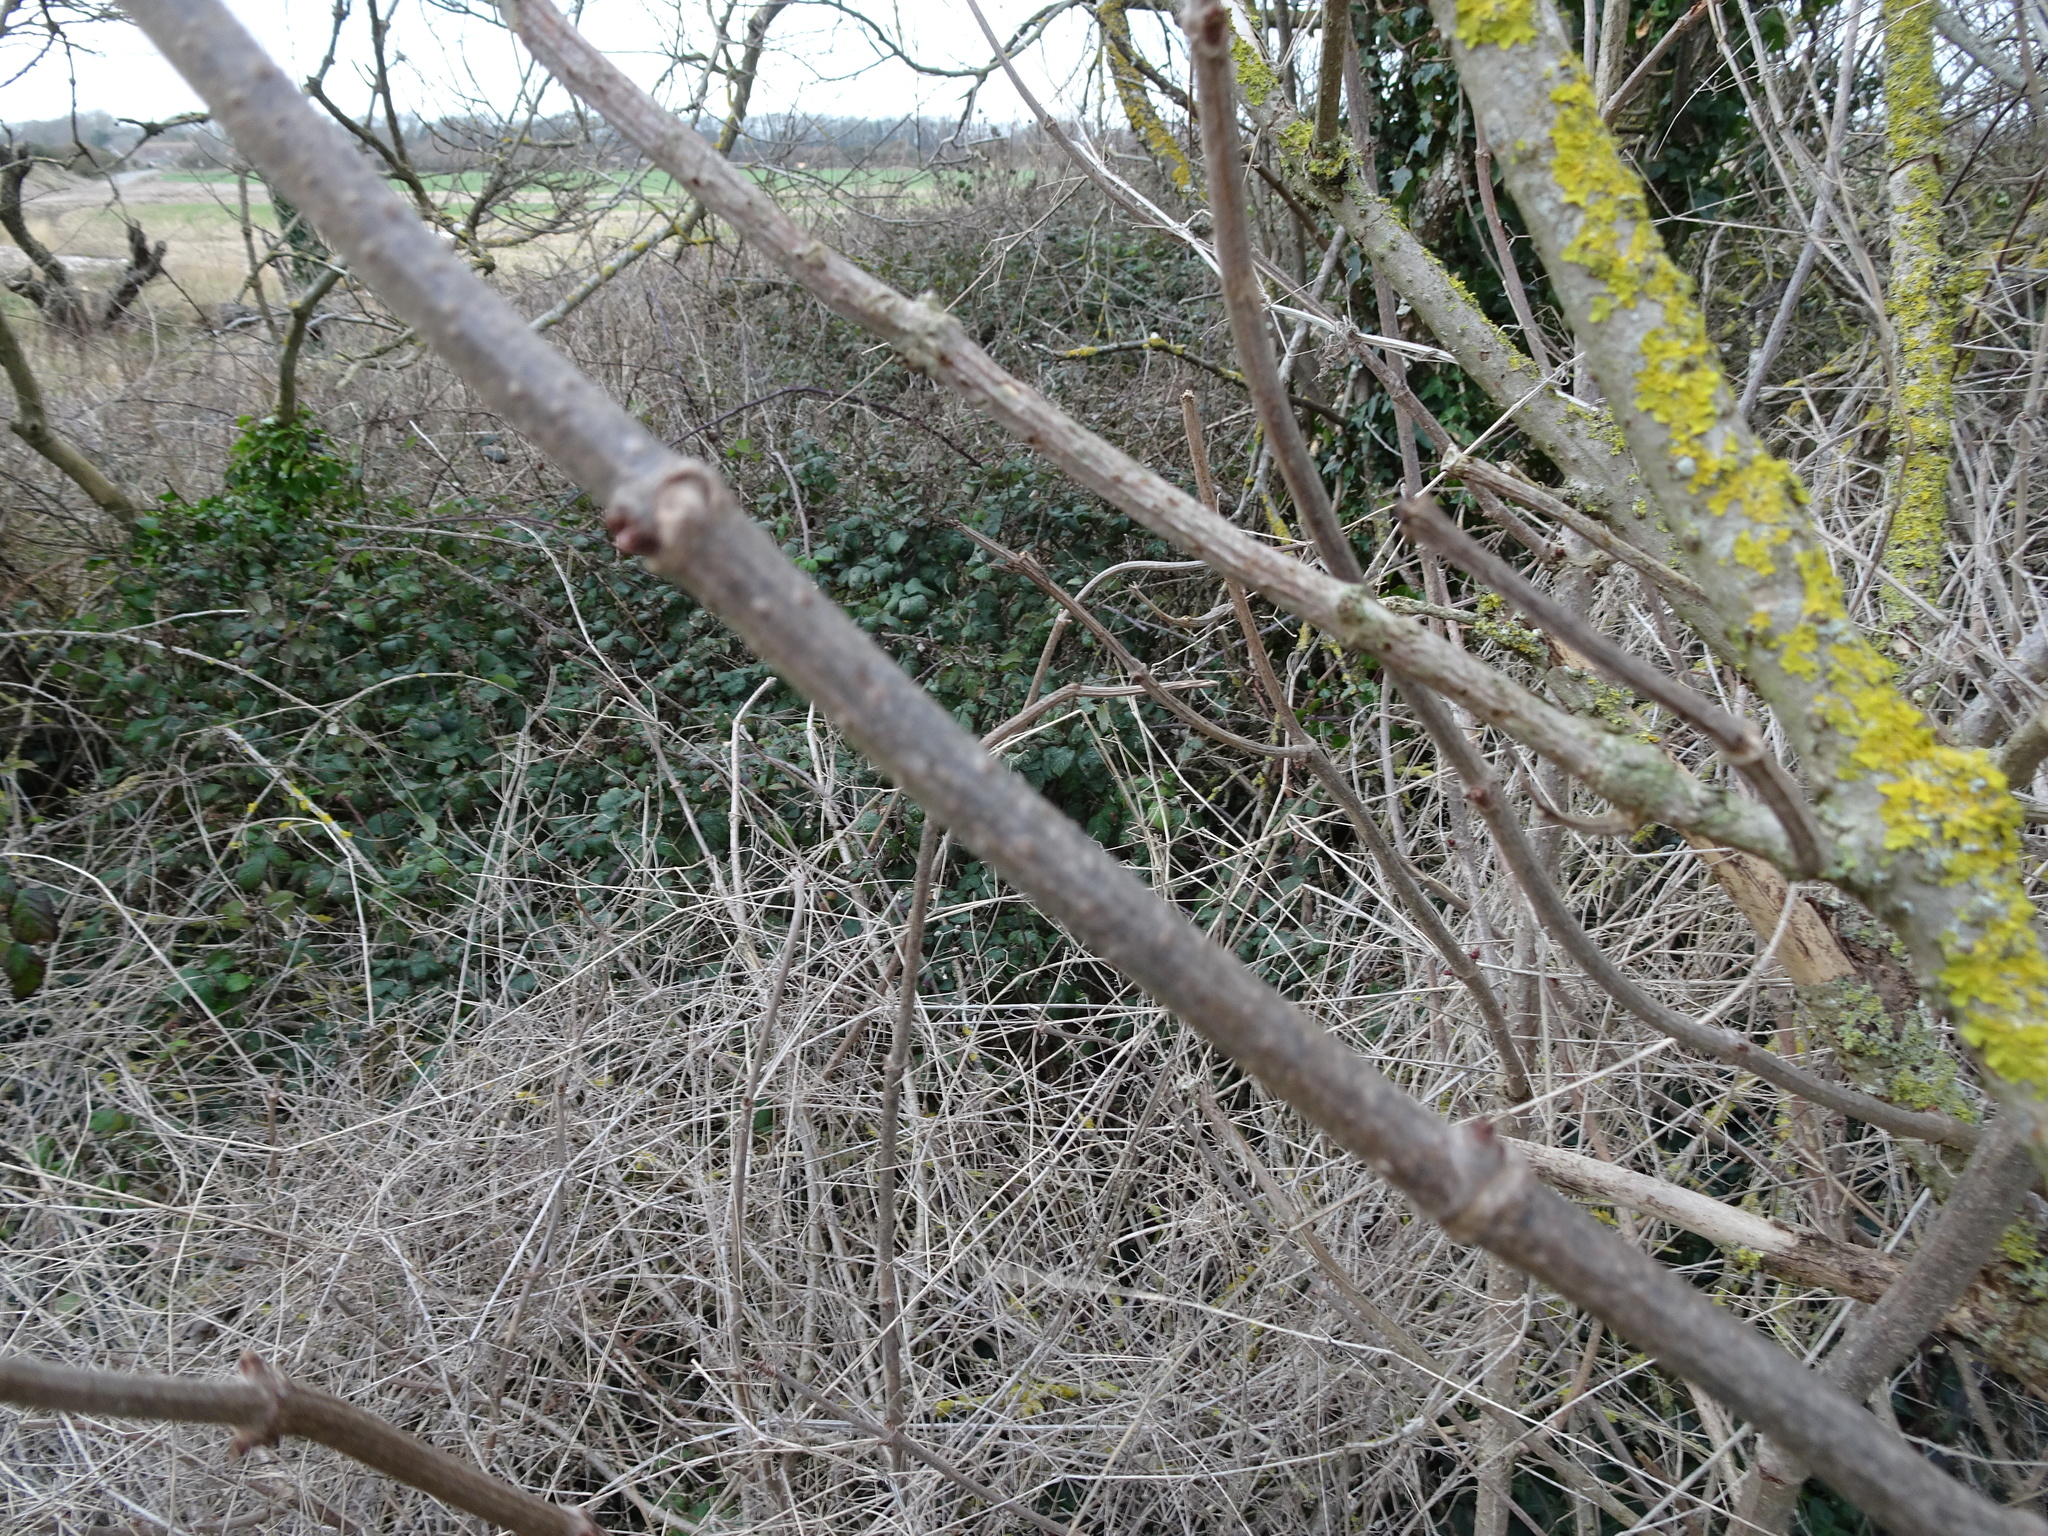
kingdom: Plantae
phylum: Tracheophyta
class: Magnoliopsida
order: Dipsacales
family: Viburnaceae
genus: Sambucus
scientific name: Sambucus nigra
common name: Elder
